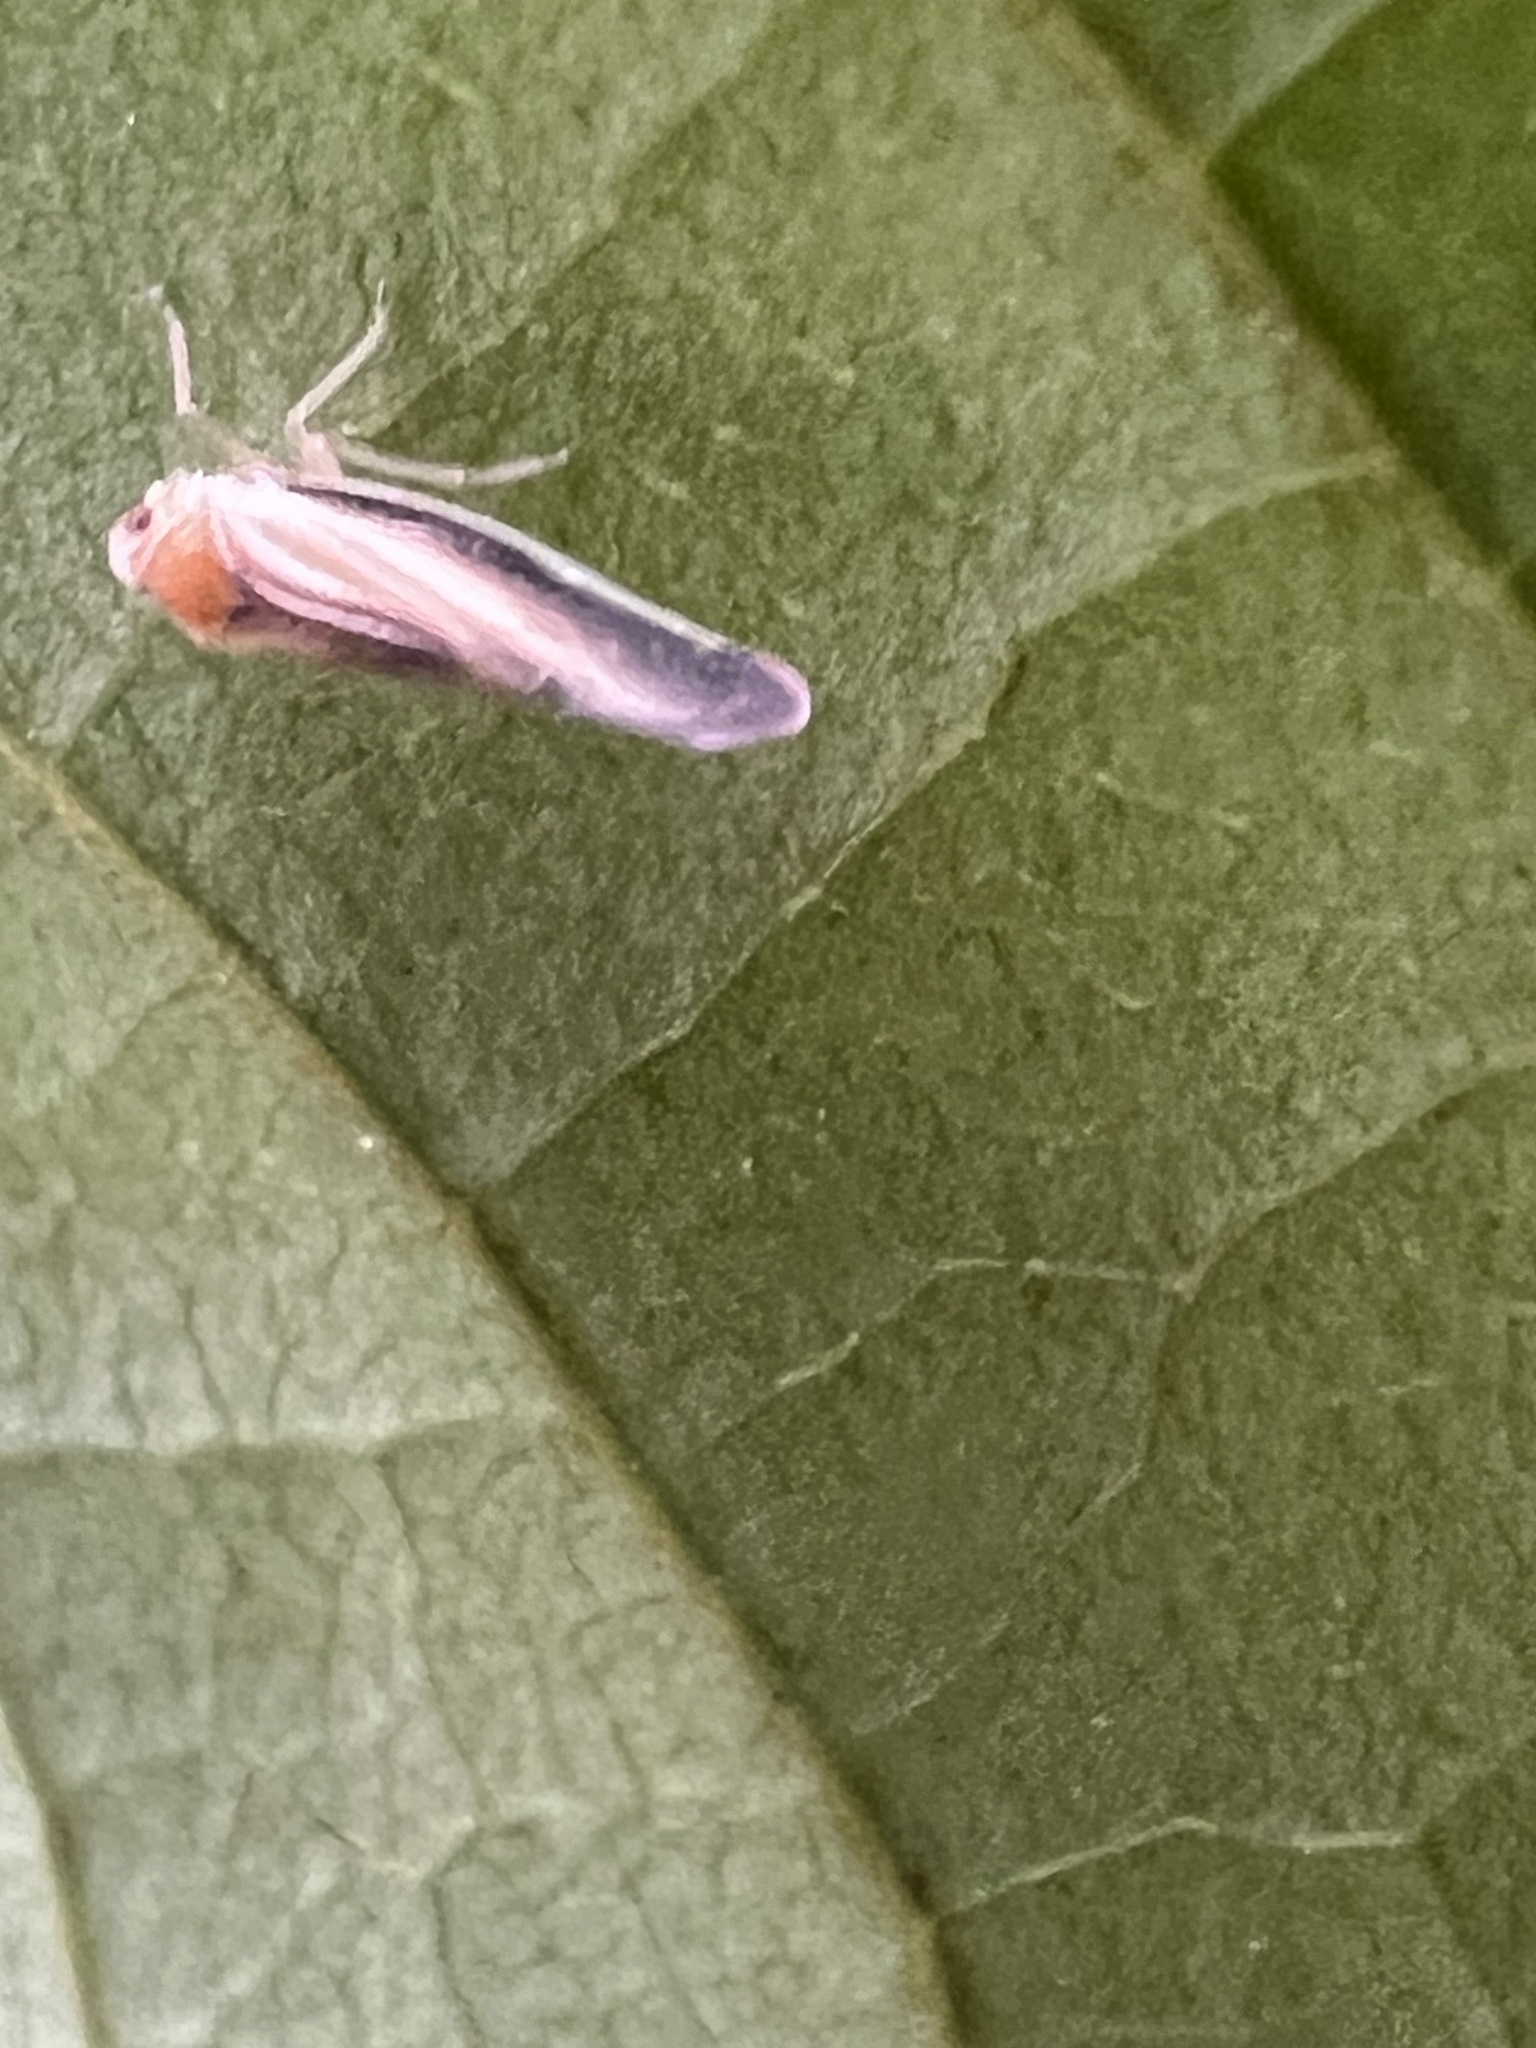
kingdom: Animalia
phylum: Arthropoda
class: Insecta
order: Hemiptera
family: Derbidae
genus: Omolicna
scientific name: Omolicna uhleri
